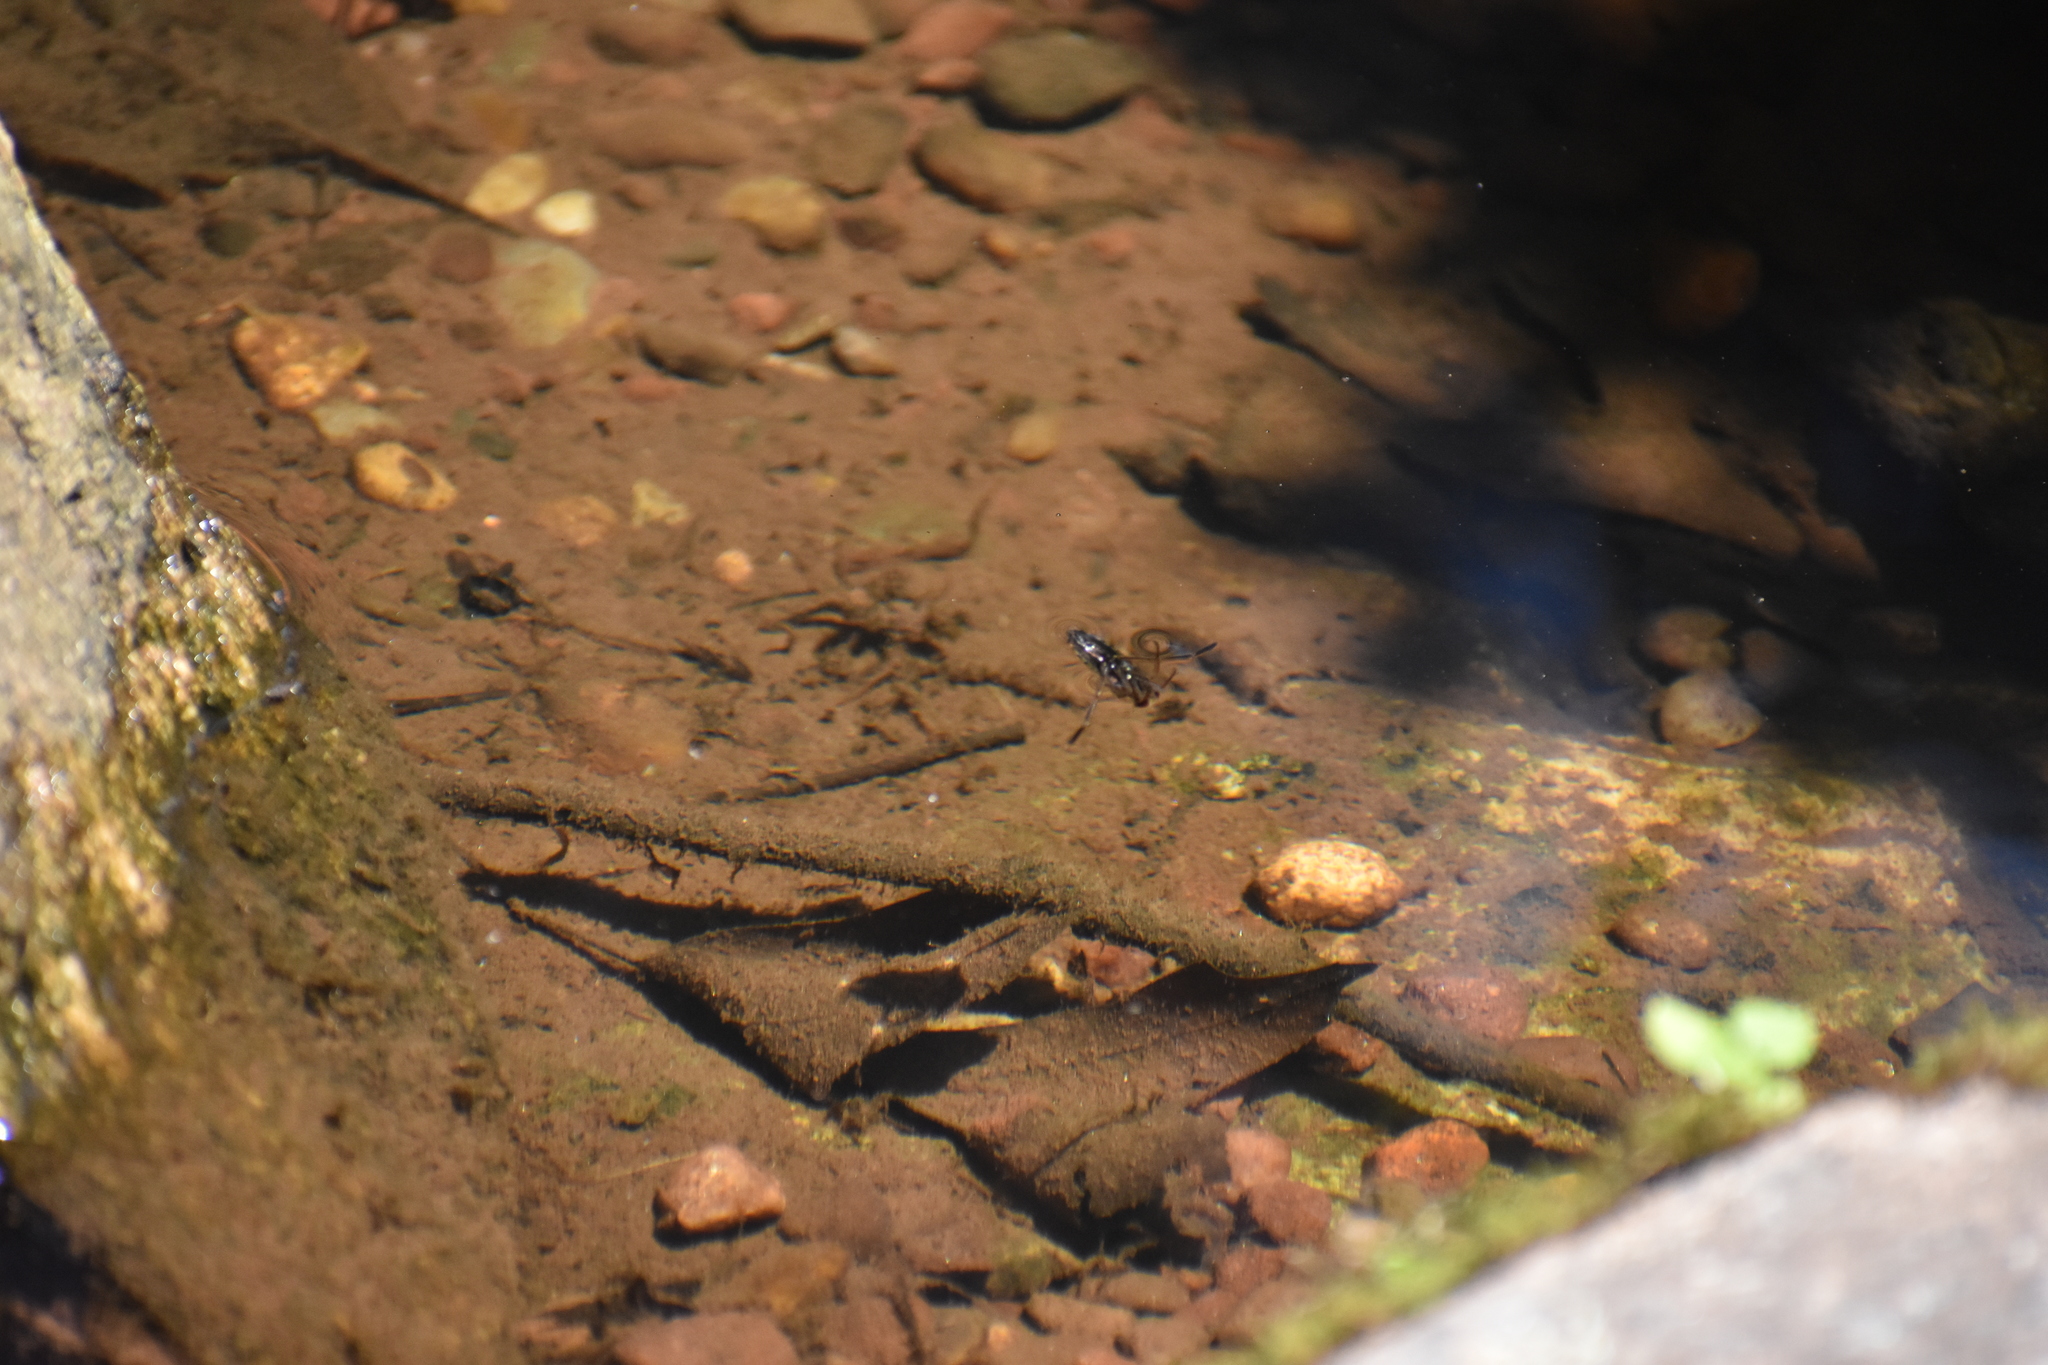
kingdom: Animalia
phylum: Arthropoda
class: Insecta
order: Hemiptera
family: Notonectidae
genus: Notonecta
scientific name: Notonecta
